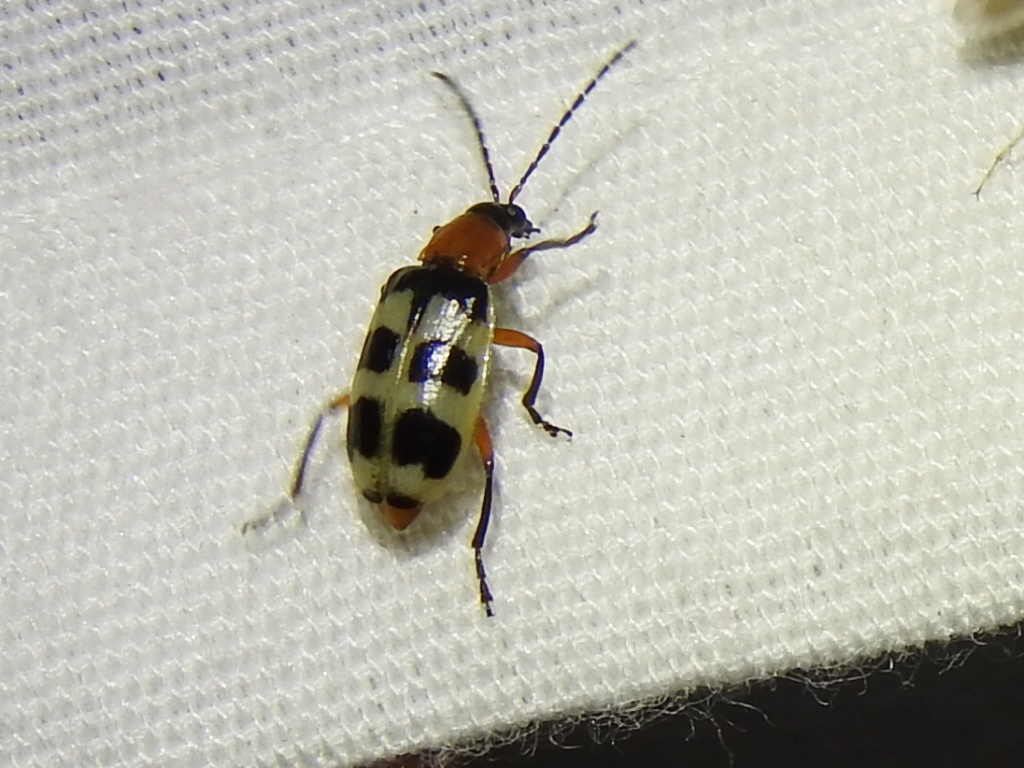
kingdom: Animalia
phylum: Arthropoda
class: Insecta
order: Coleoptera
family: Chrysomelidae
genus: Paranapiacaba
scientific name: Paranapiacaba tricincta
